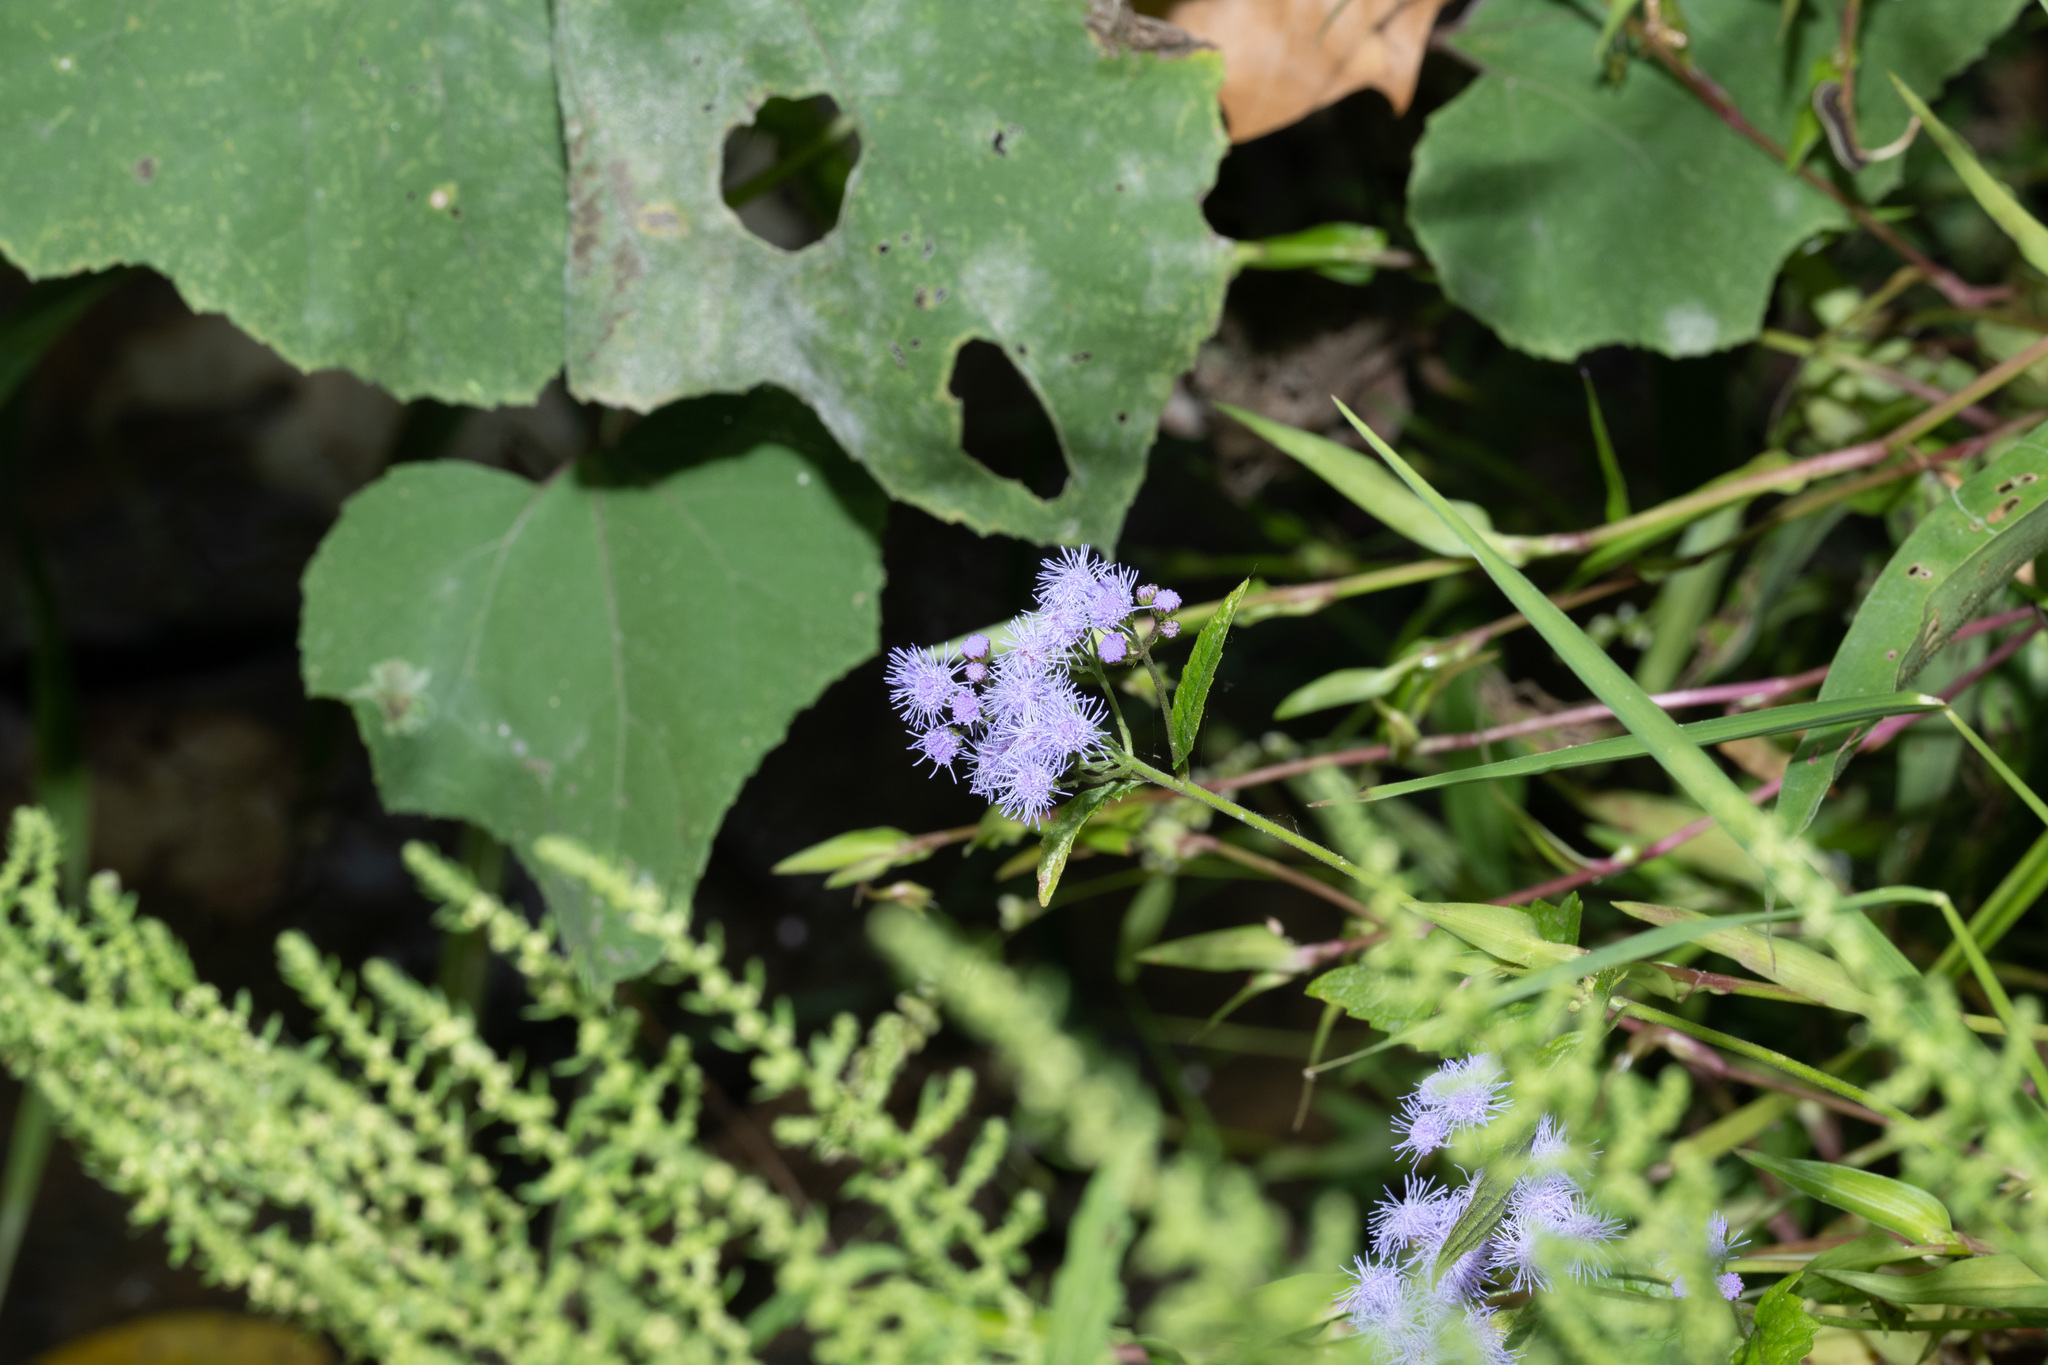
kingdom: Plantae
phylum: Tracheophyta
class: Magnoliopsida
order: Asterales
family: Asteraceae
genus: Conoclinium
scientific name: Conoclinium coelestinum
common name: Blue mistflower
